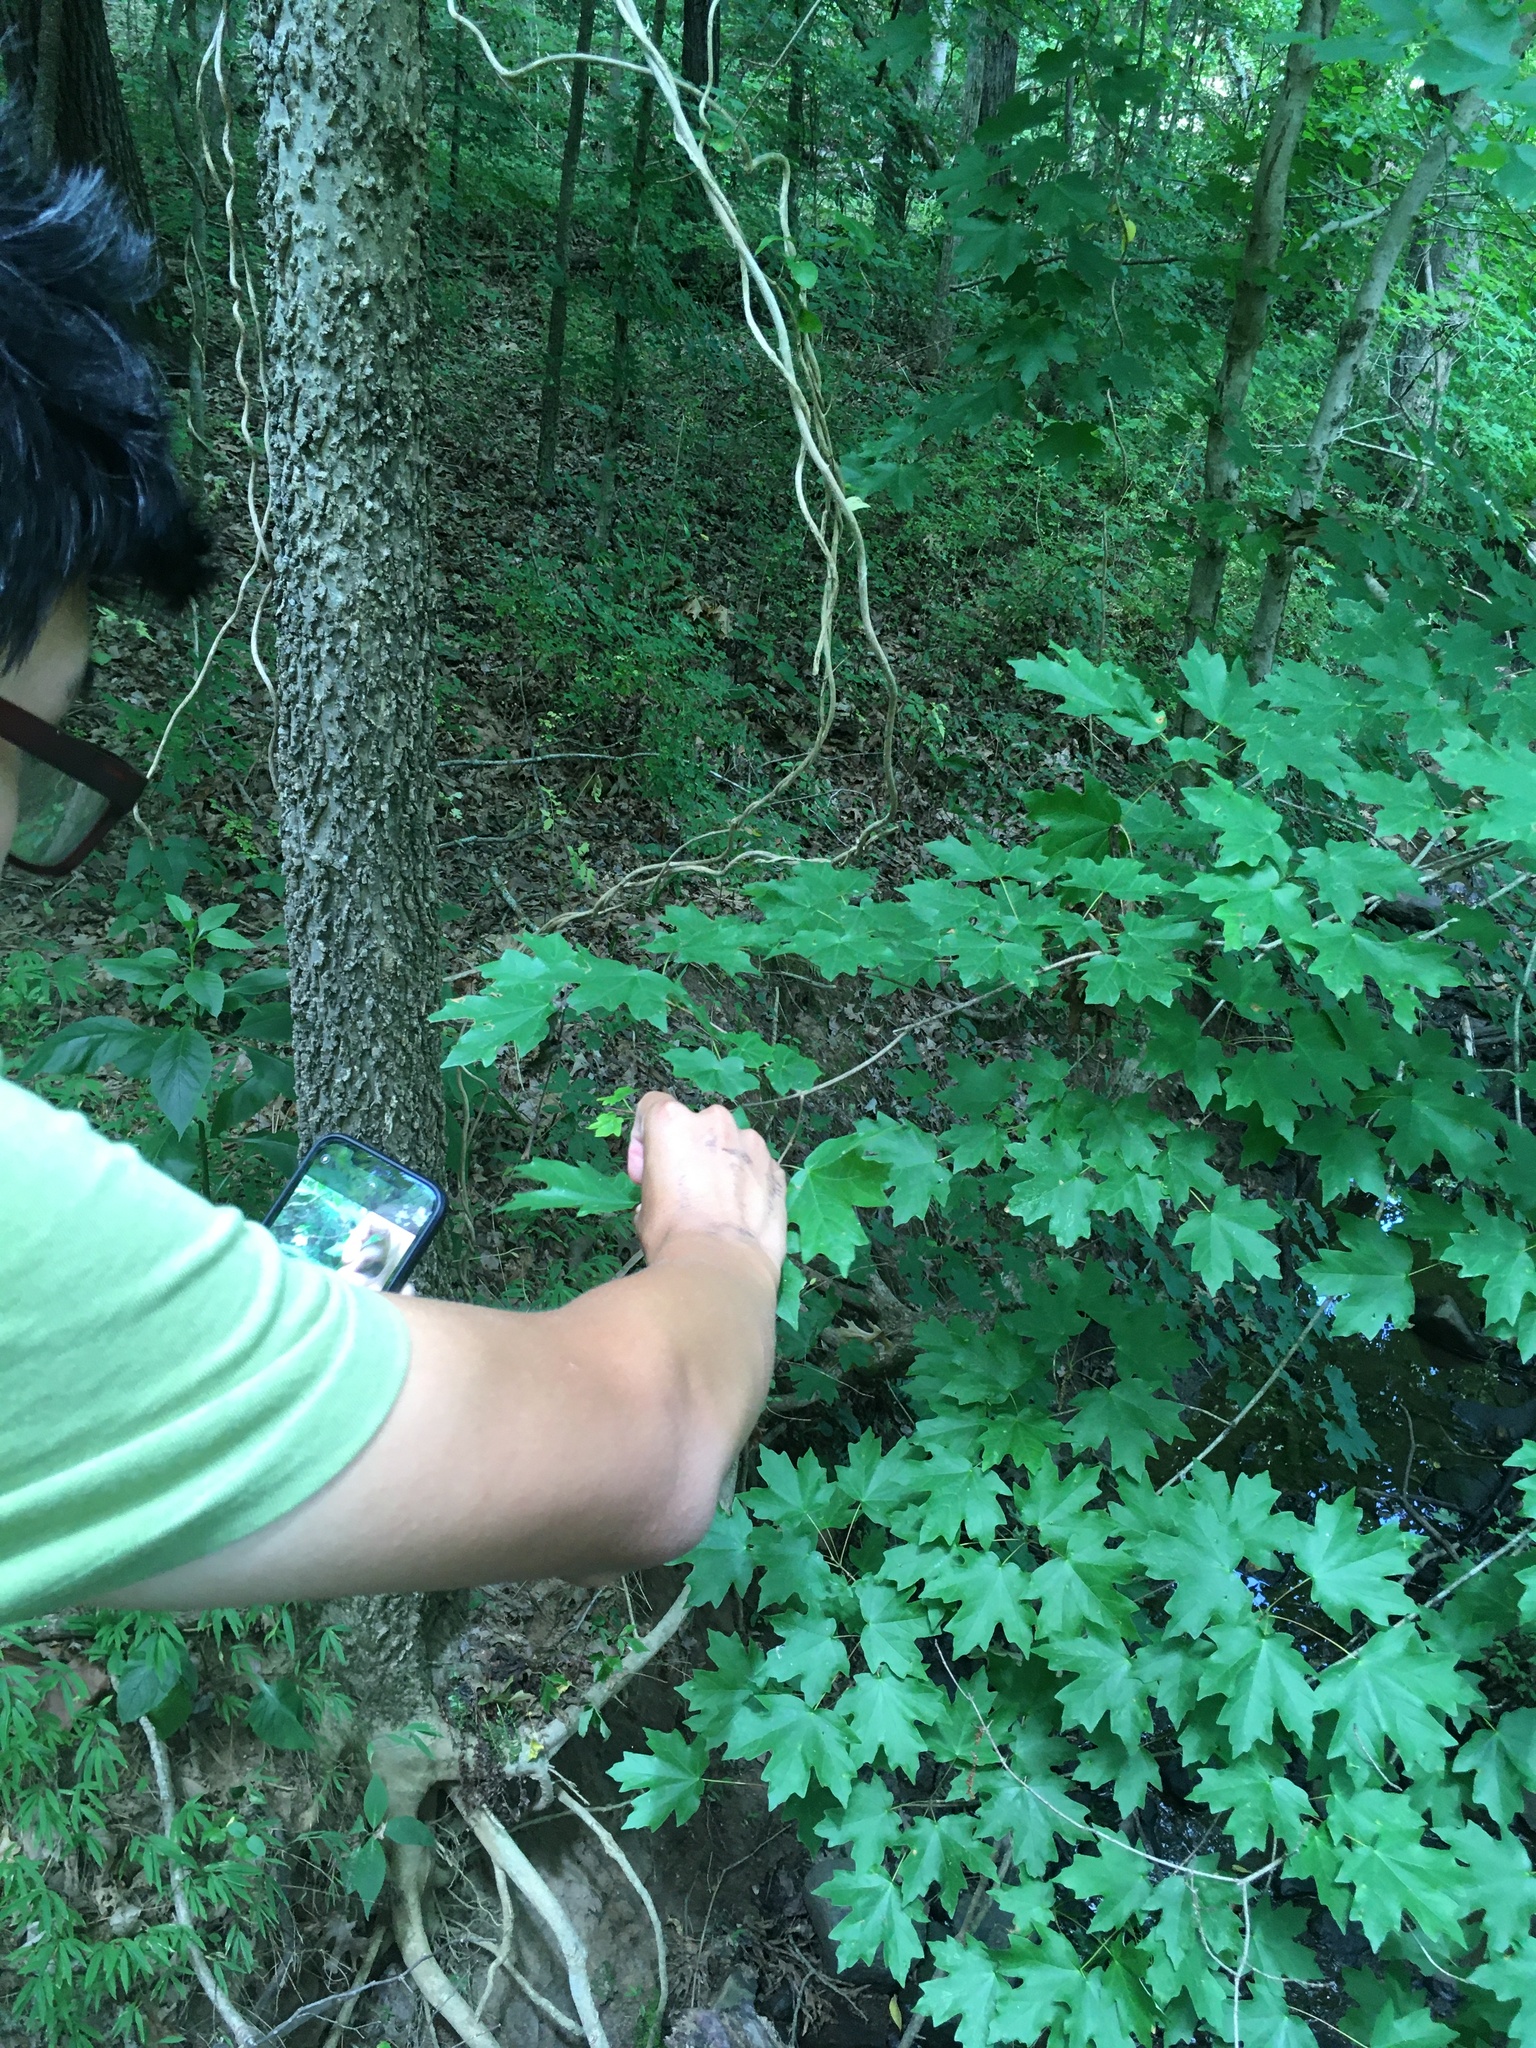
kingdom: Plantae
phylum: Tracheophyta
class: Magnoliopsida
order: Sapindales
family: Sapindaceae
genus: Acer
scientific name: Acer floridanum
